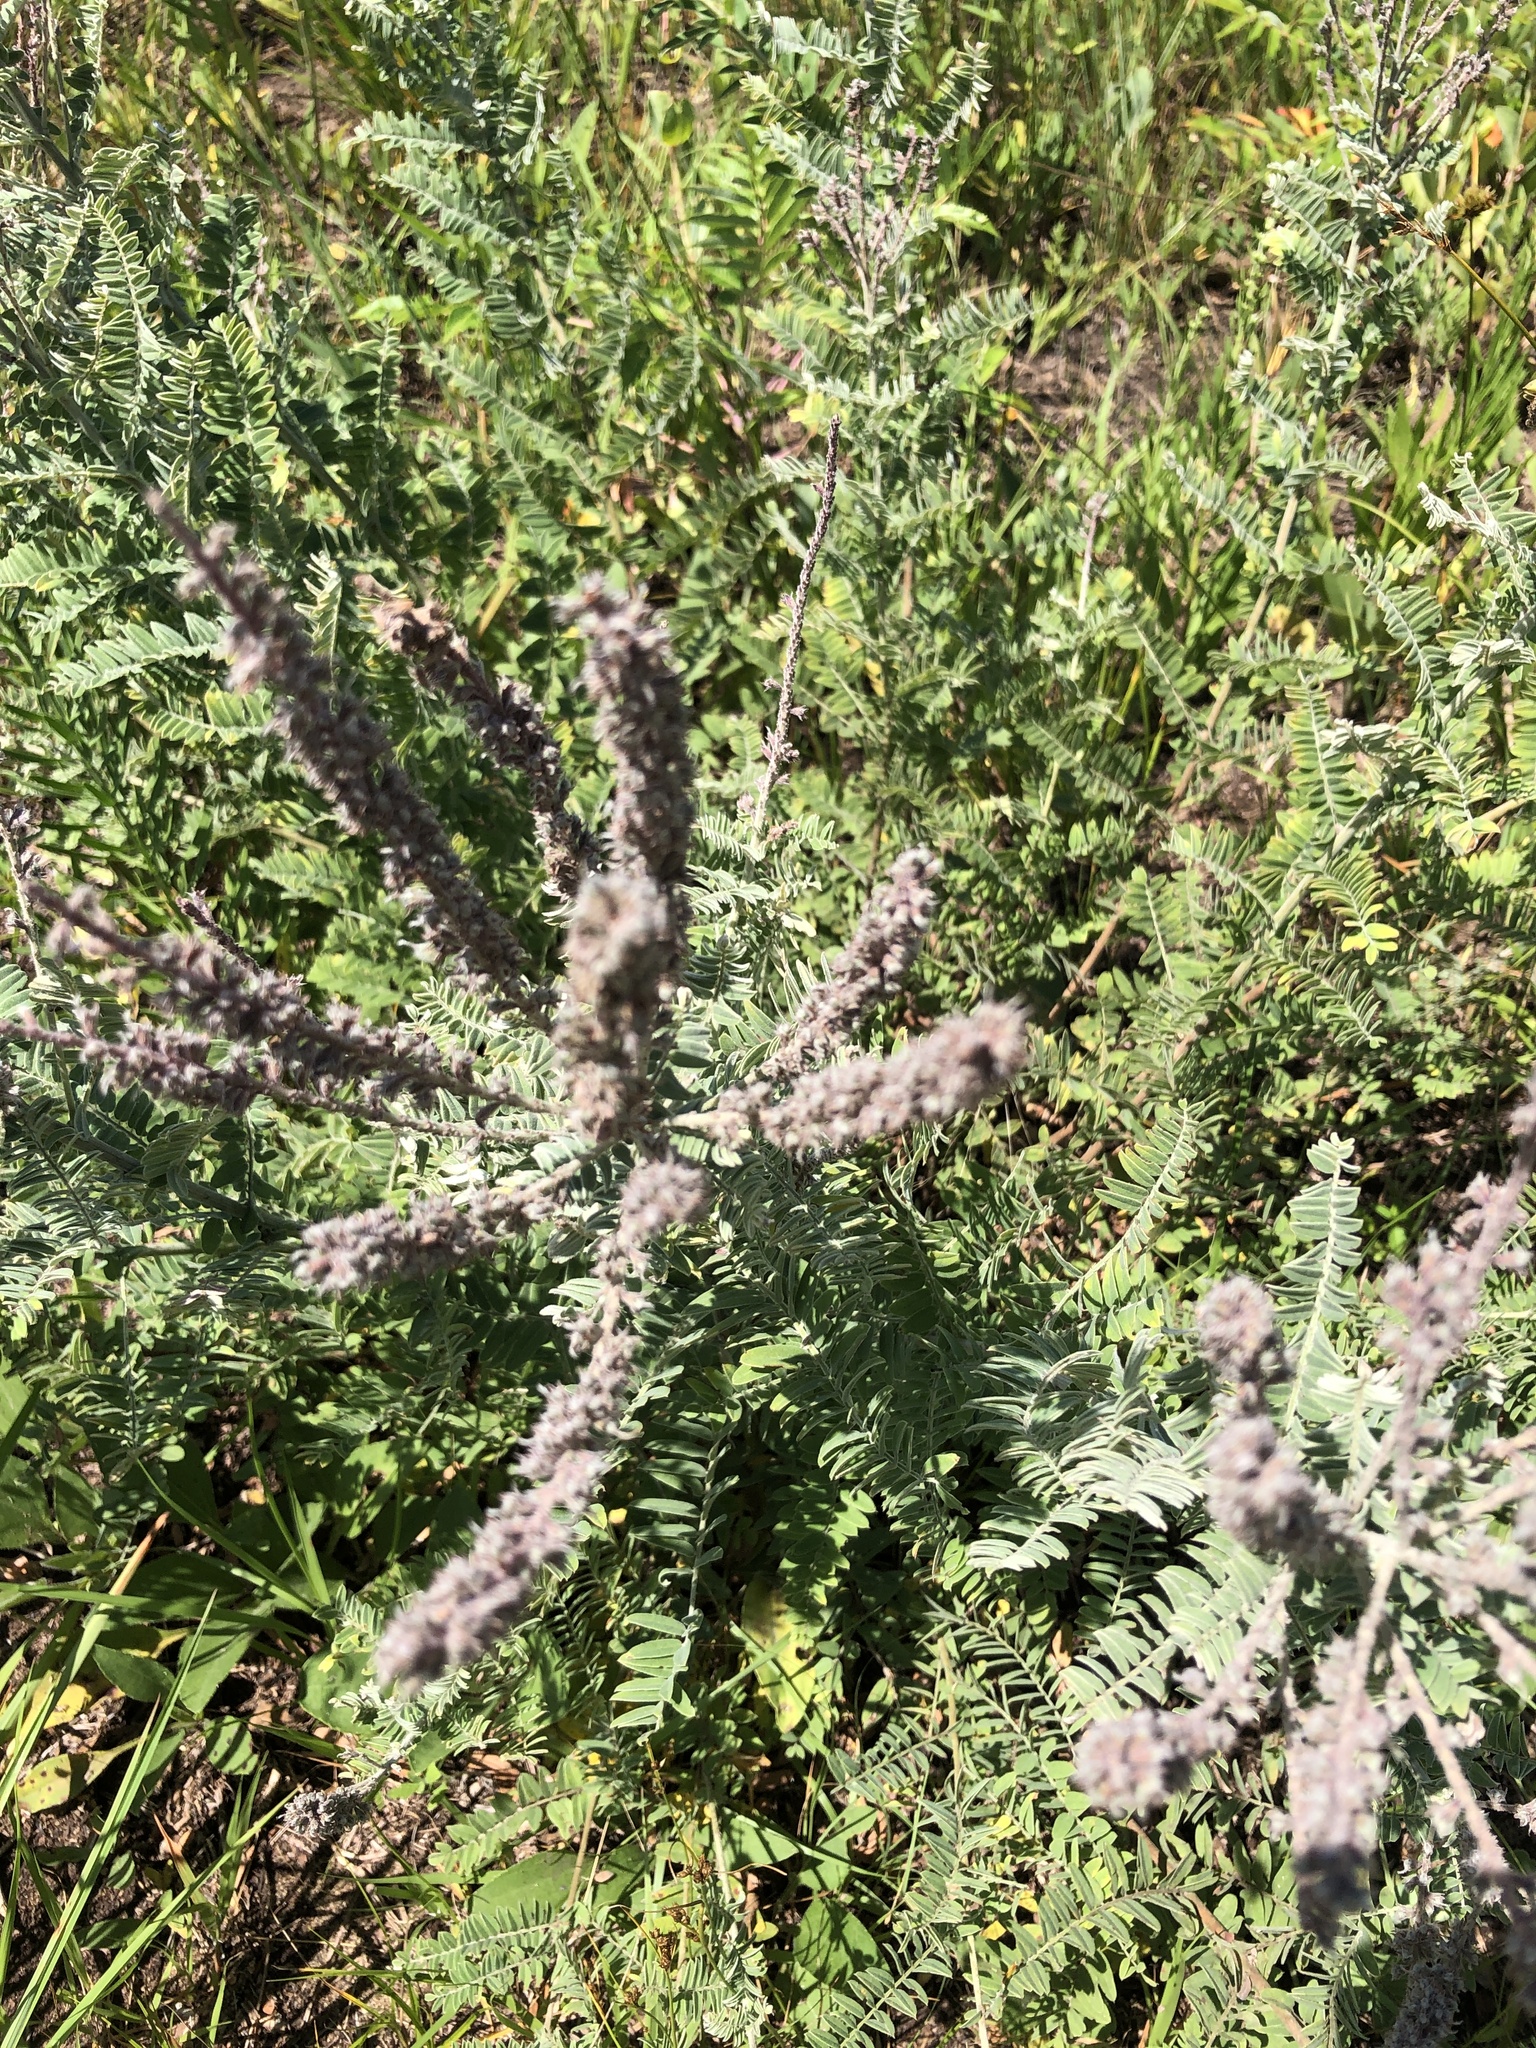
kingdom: Plantae
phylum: Tracheophyta
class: Magnoliopsida
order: Fabales
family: Fabaceae
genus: Amorpha
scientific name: Amorpha canescens
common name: Leadplant
